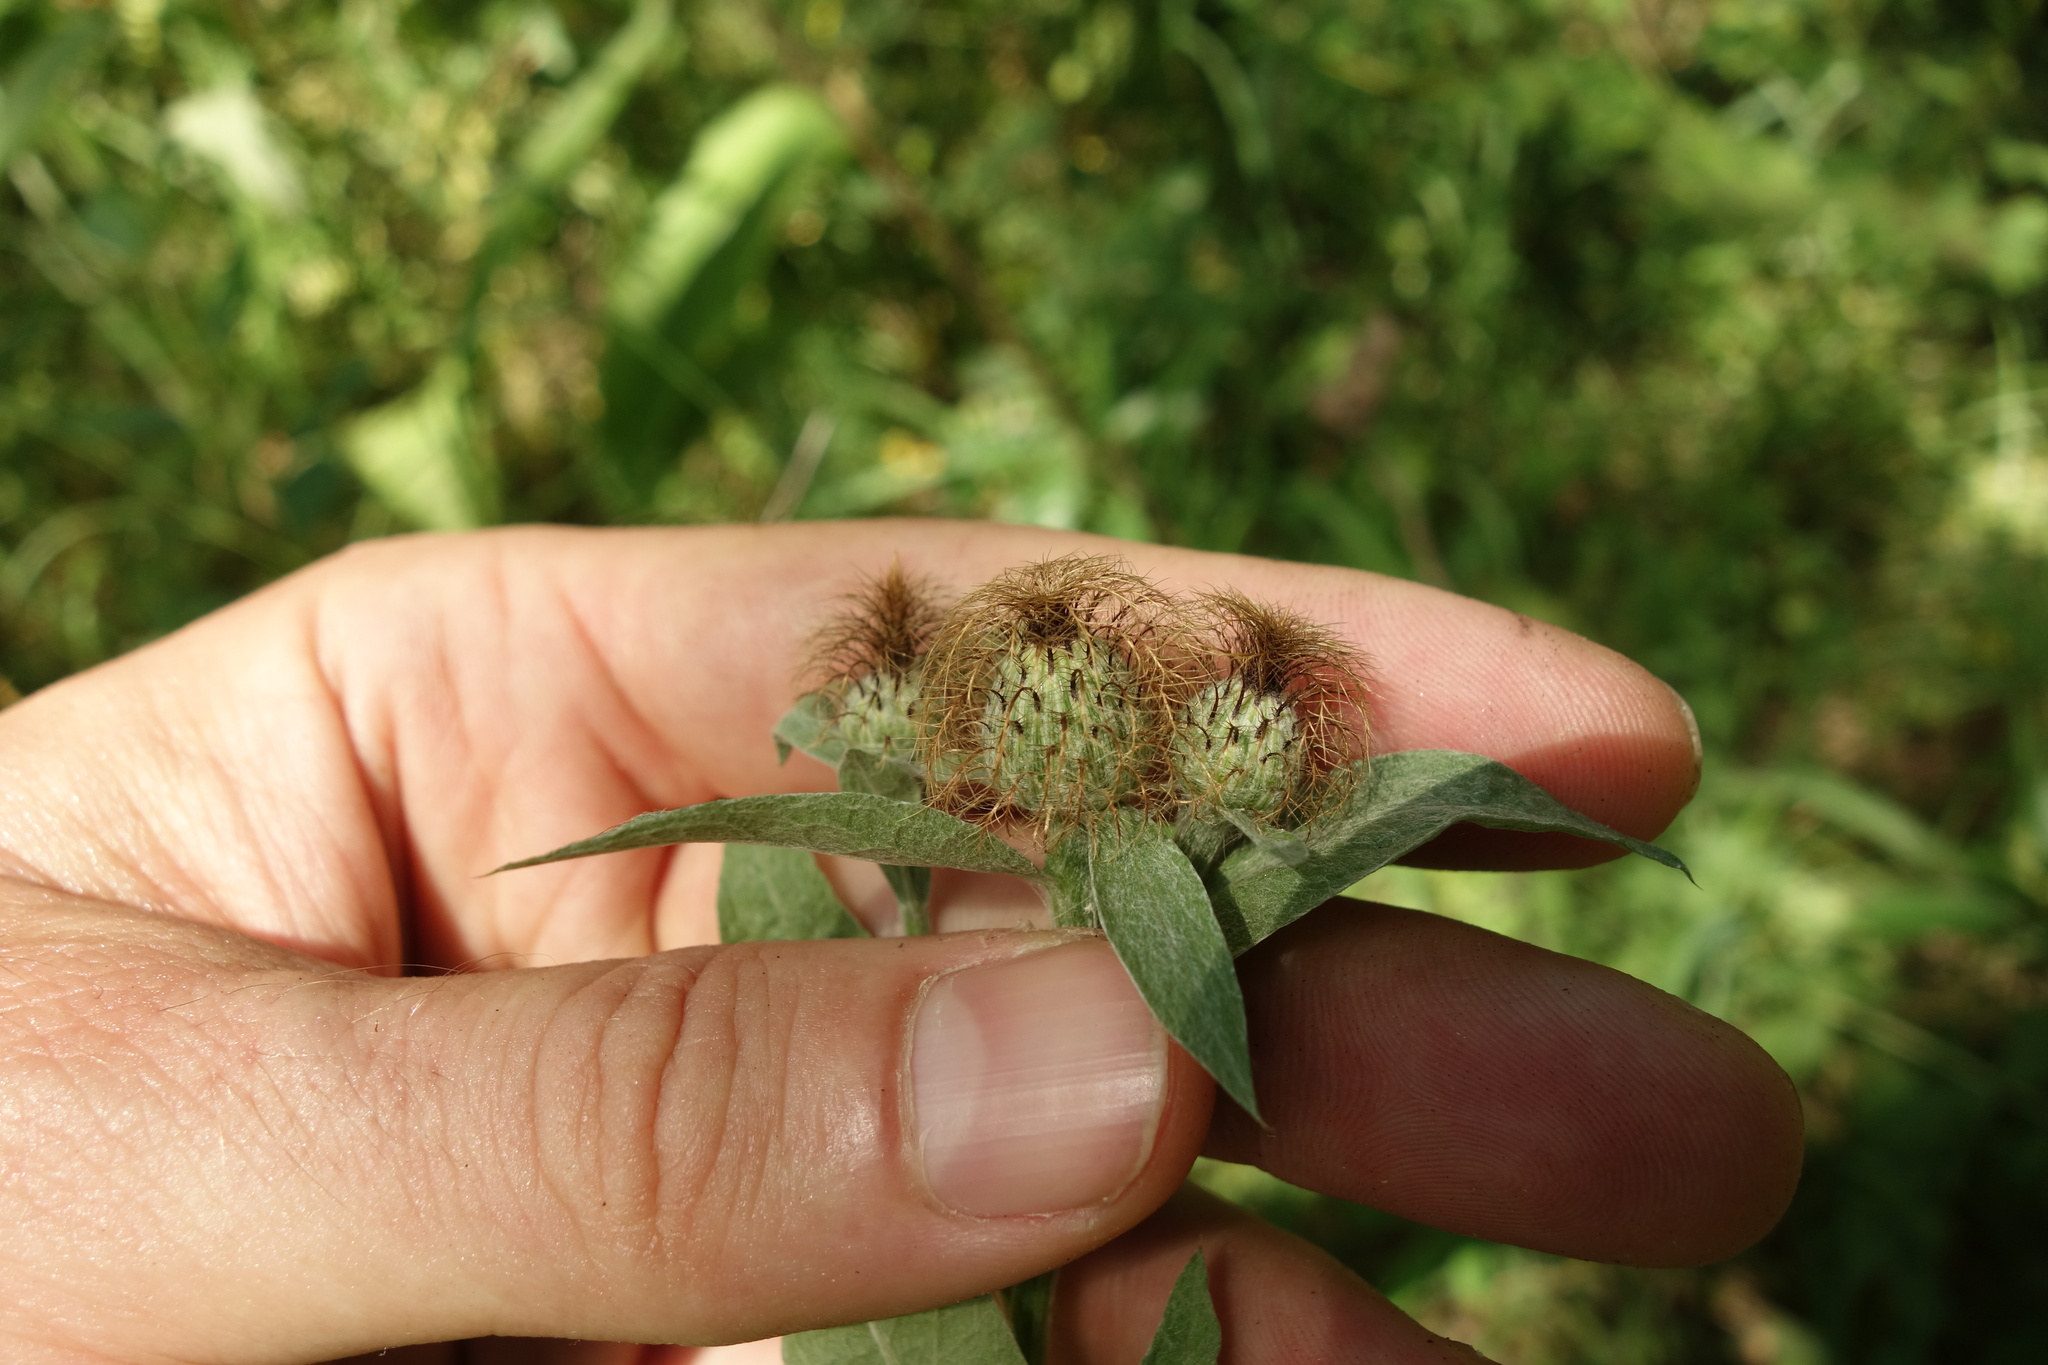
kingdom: Plantae
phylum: Tracheophyta
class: Magnoliopsida
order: Asterales
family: Asteraceae
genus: Centaurea
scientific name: Centaurea pseudophrygia
